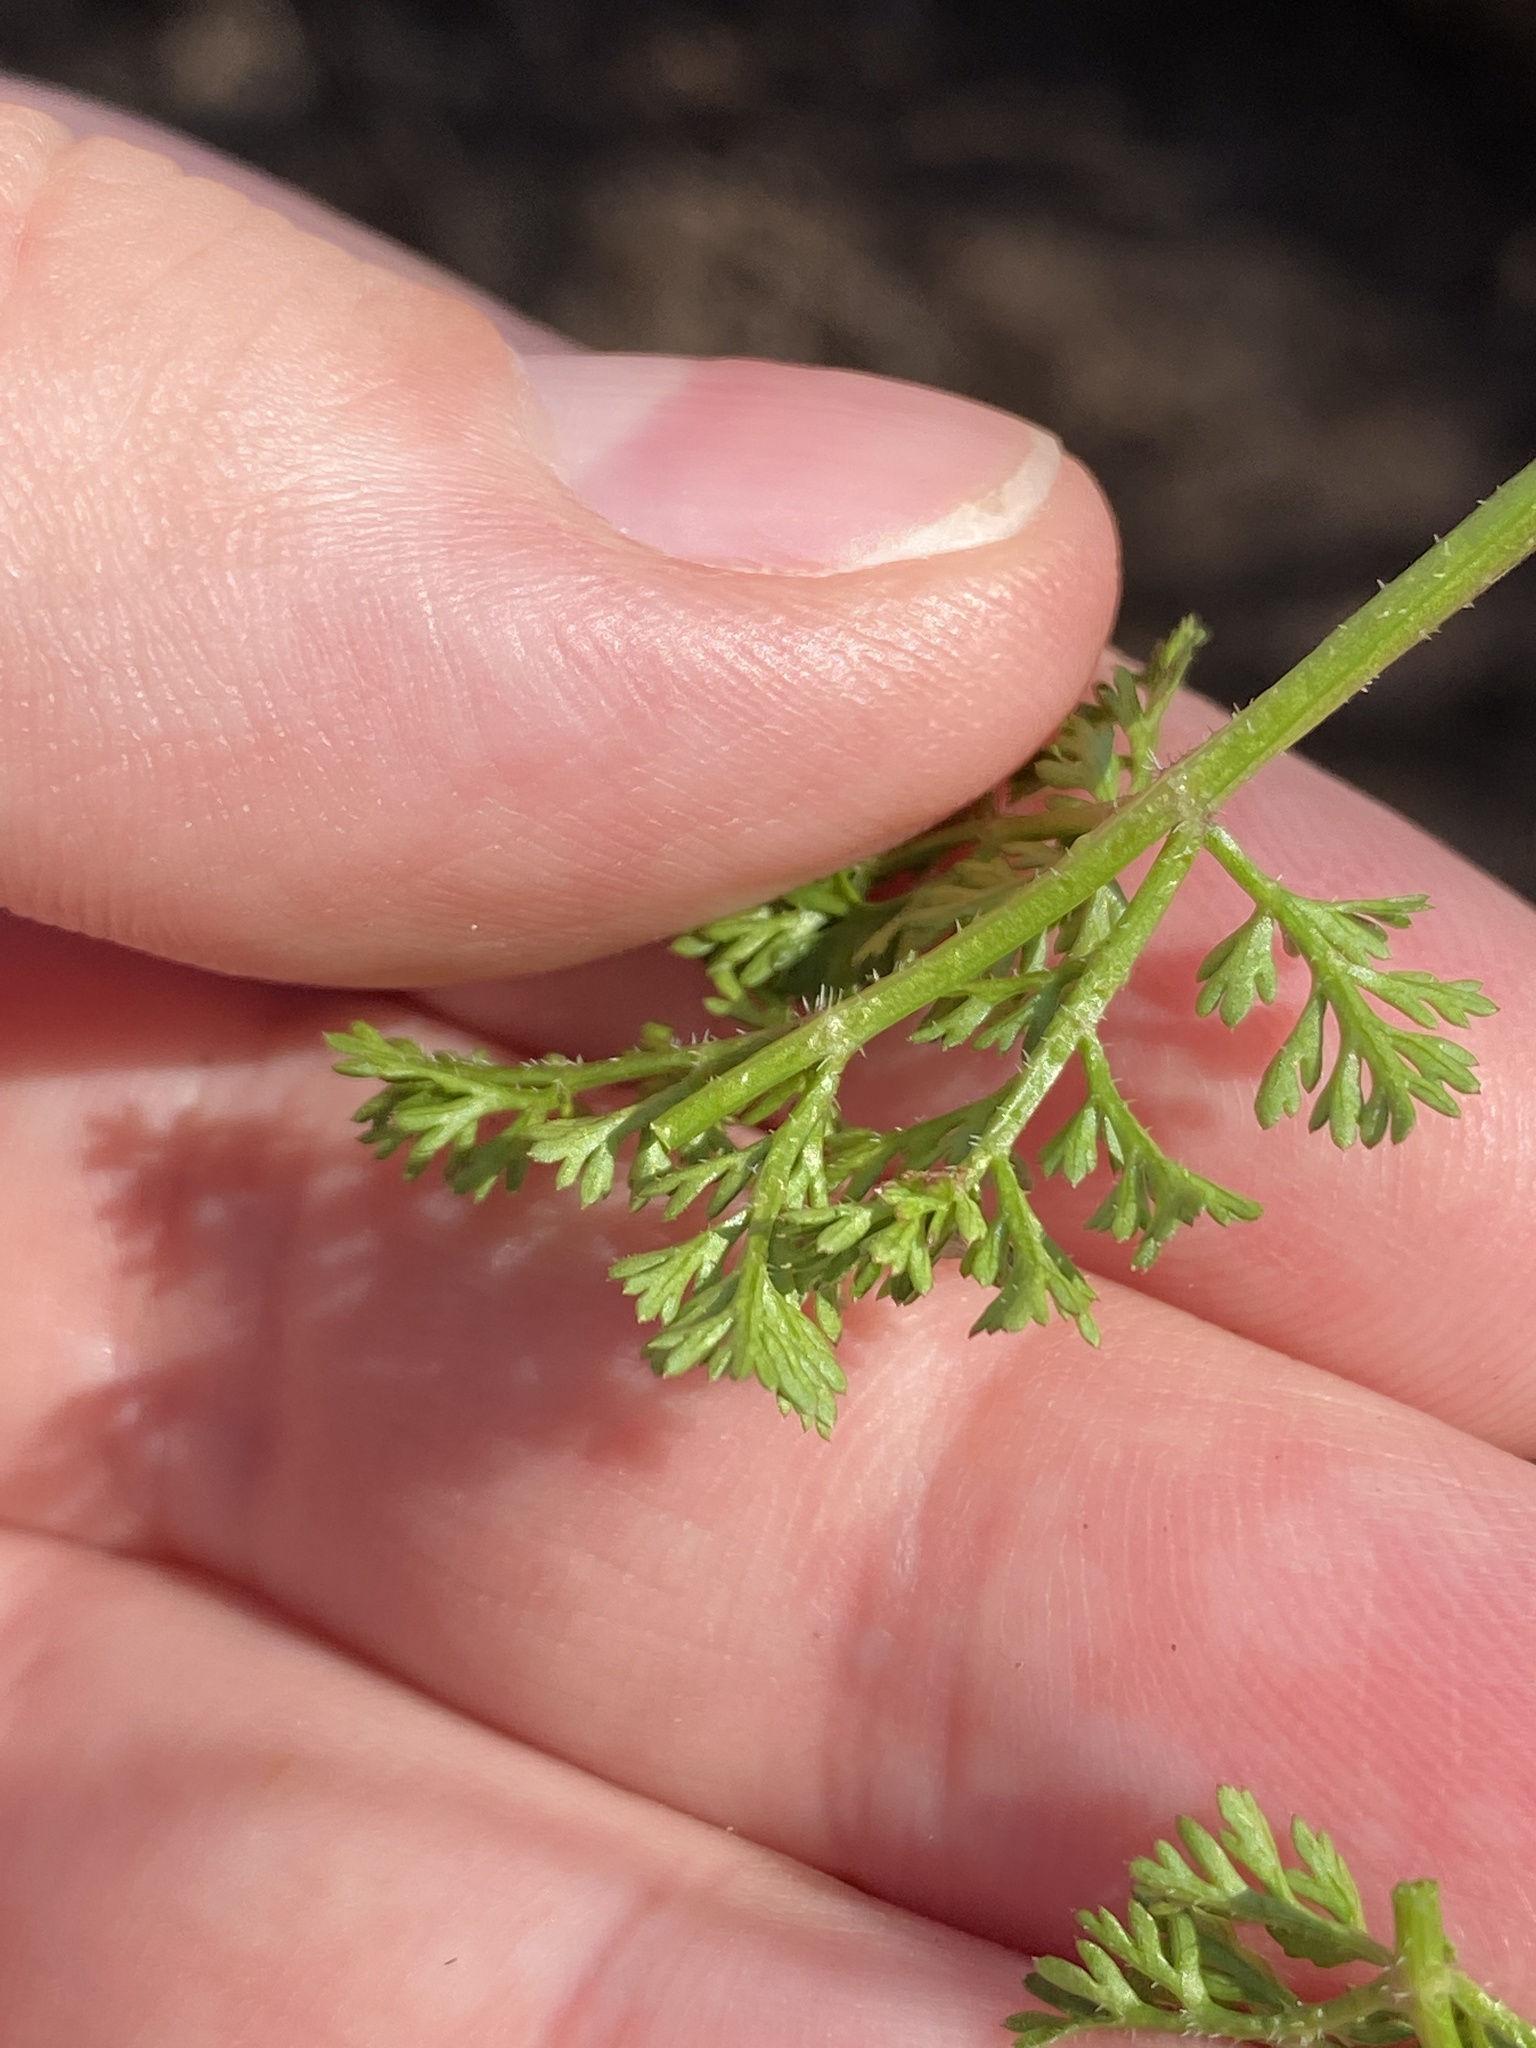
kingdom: Plantae
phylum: Tracheophyta
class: Magnoliopsida
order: Apiales
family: Apiaceae
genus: Daucus
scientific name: Daucus carota
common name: Wild carrot
